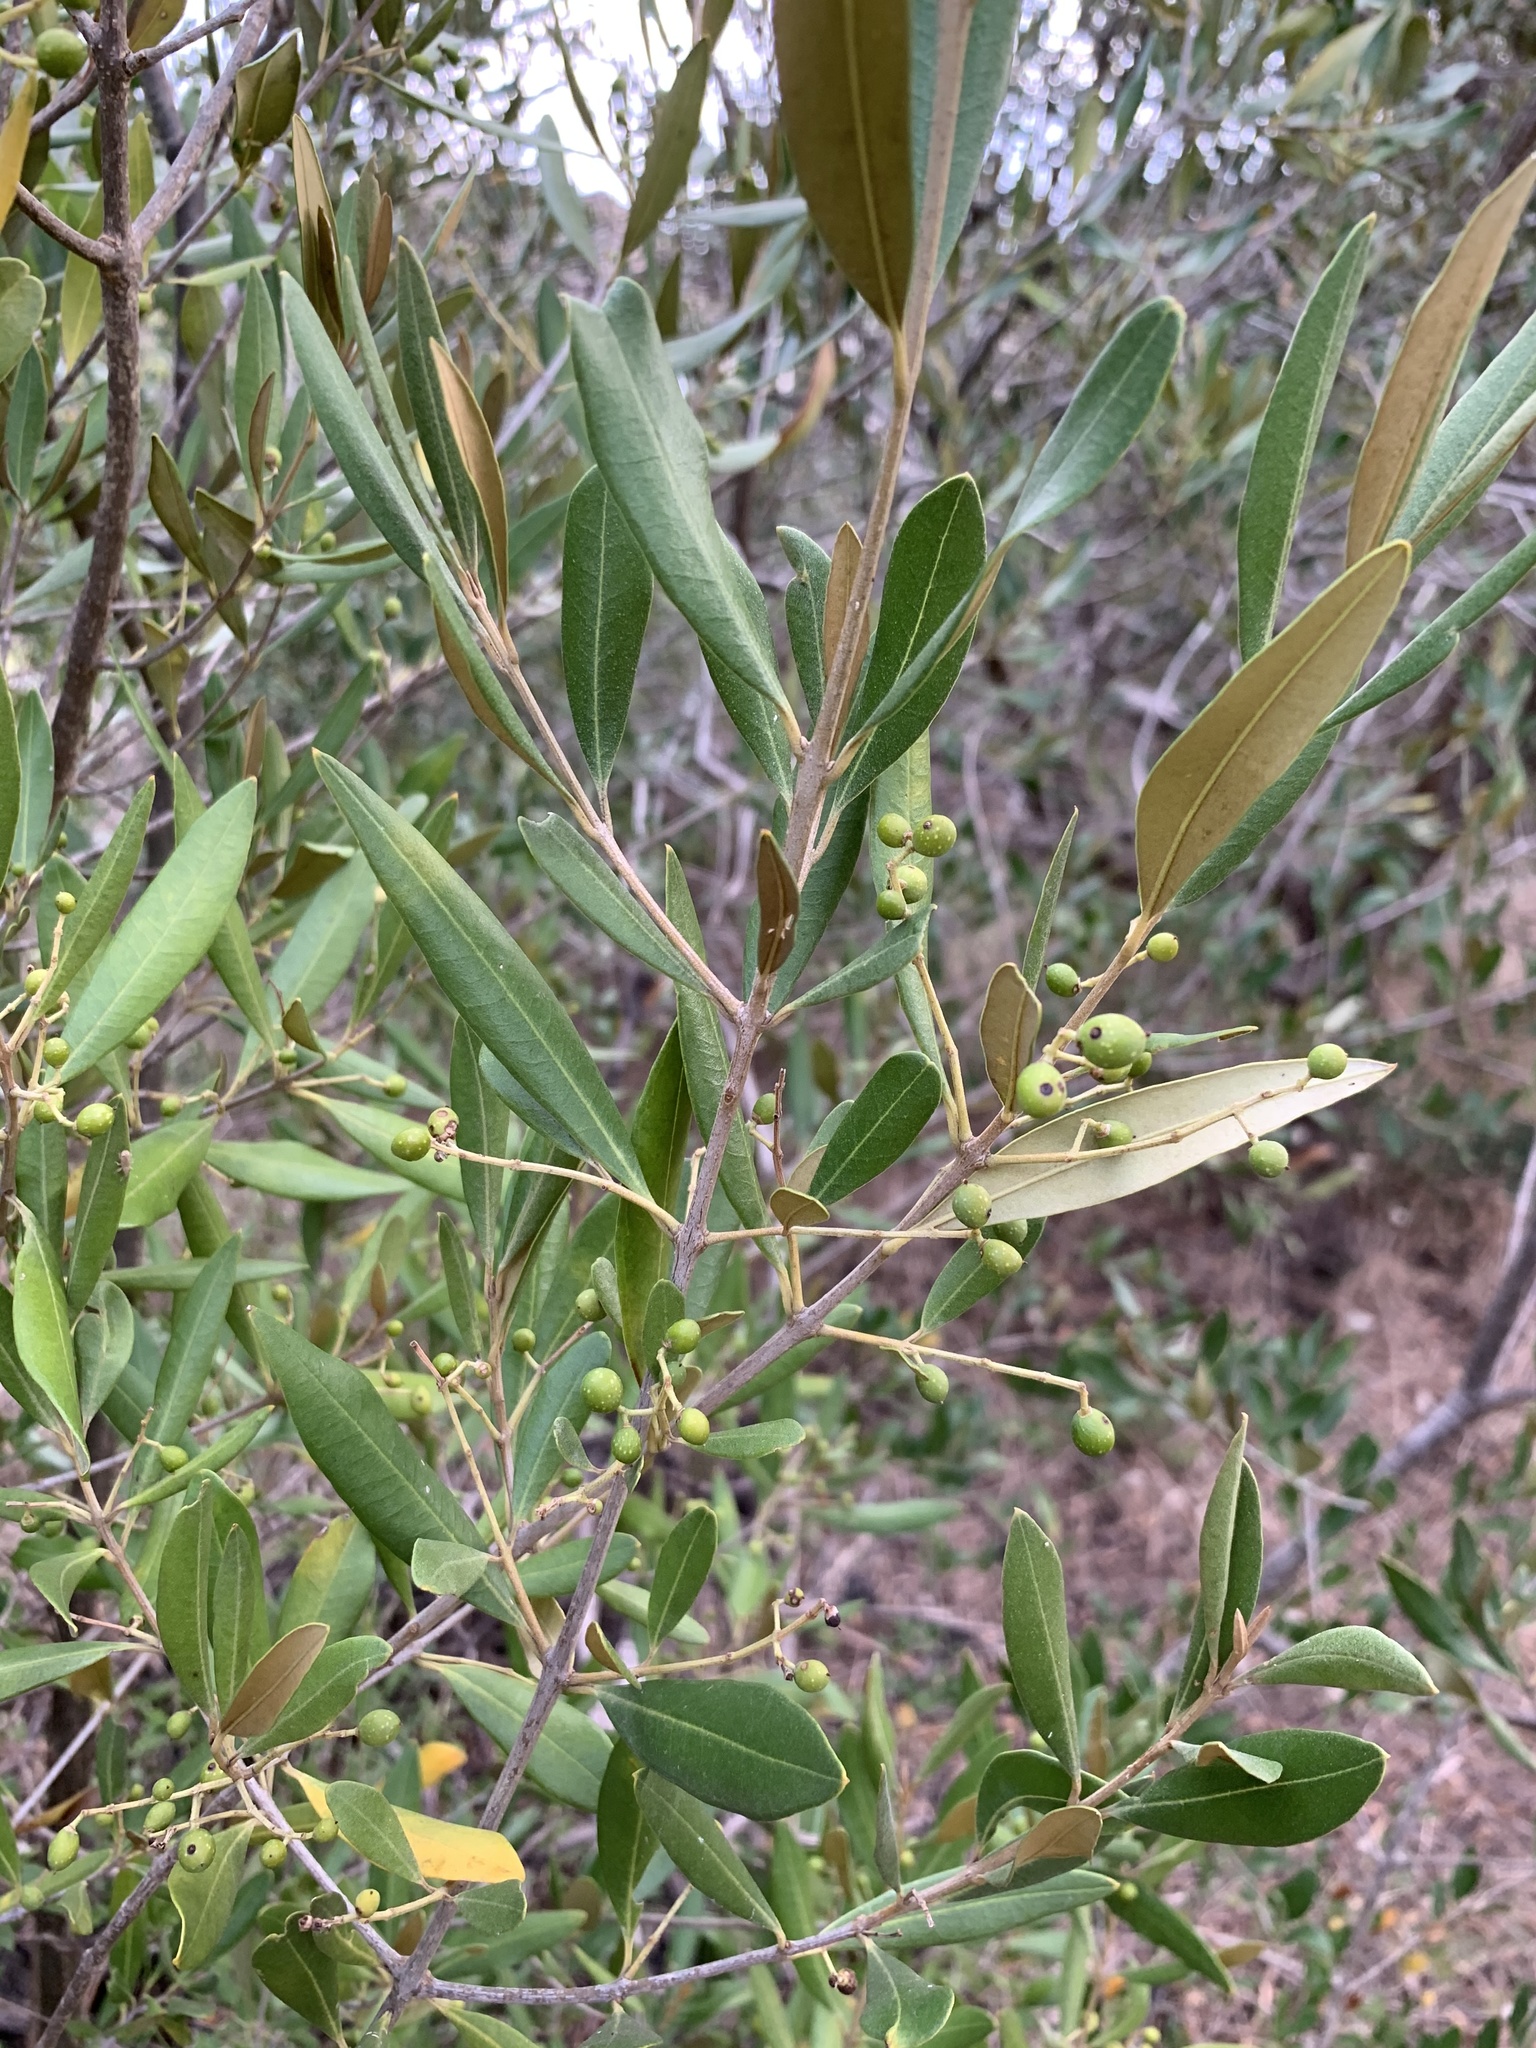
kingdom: Plantae
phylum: Tracheophyta
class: Magnoliopsida
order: Lamiales
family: Oleaceae
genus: Olea
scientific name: Olea europaea
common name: Olive
